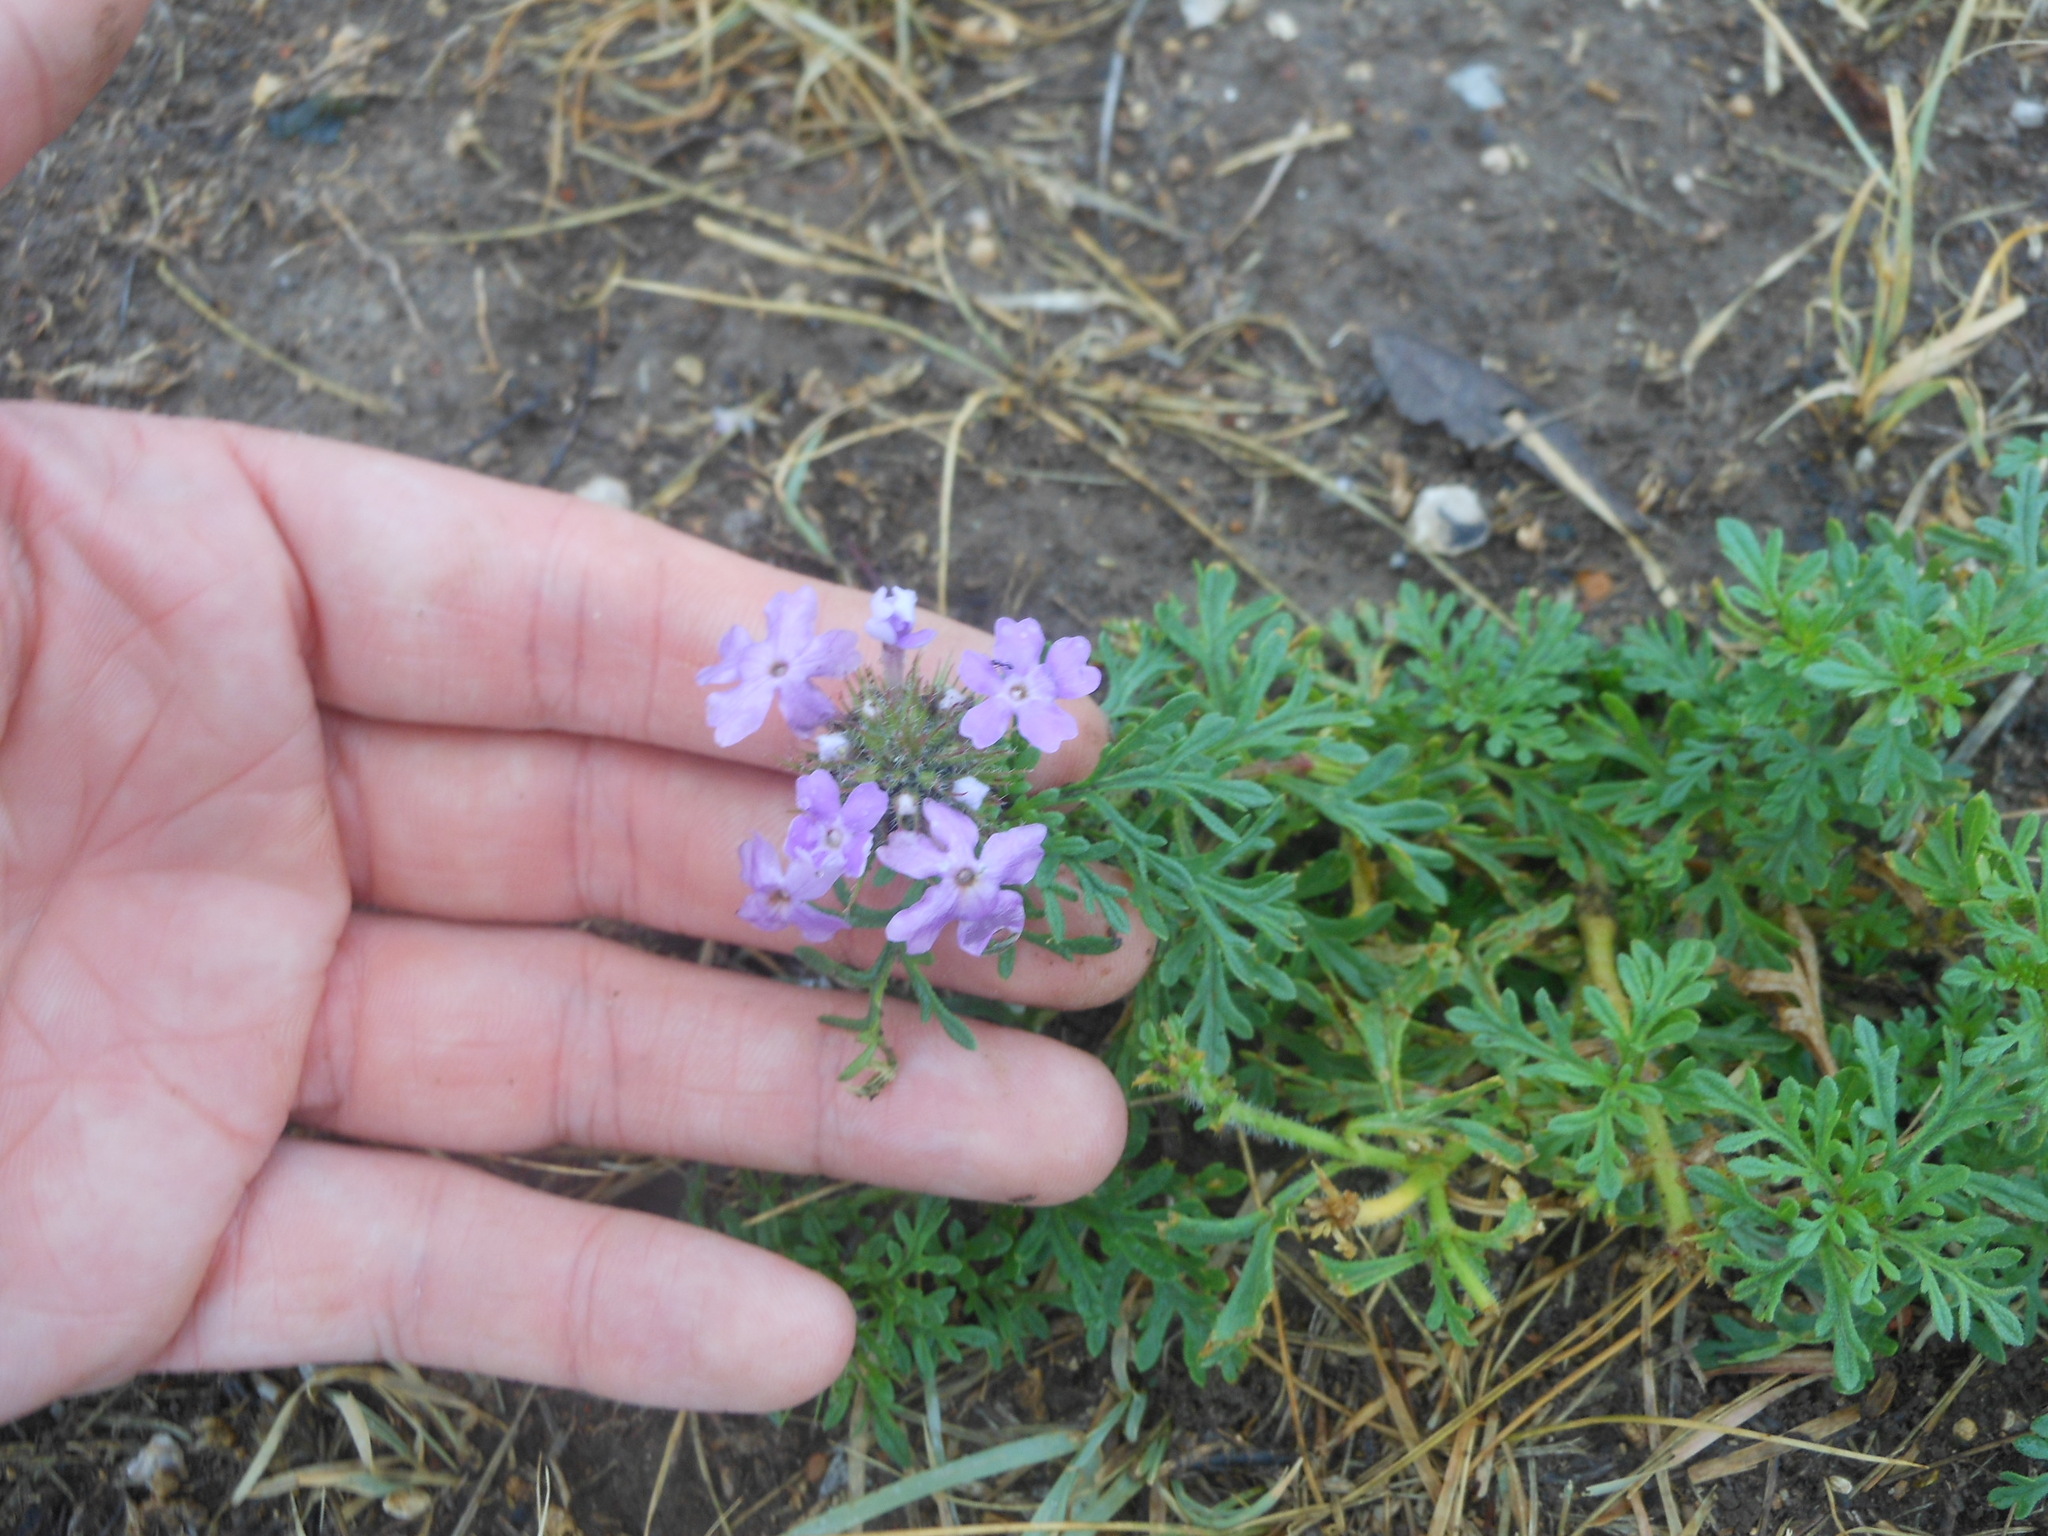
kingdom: Plantae
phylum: Tracheophyta
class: Magnoliopsida
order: Lamiales
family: Verbenaceae
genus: Verbena
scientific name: Verbena bipinnatifida
